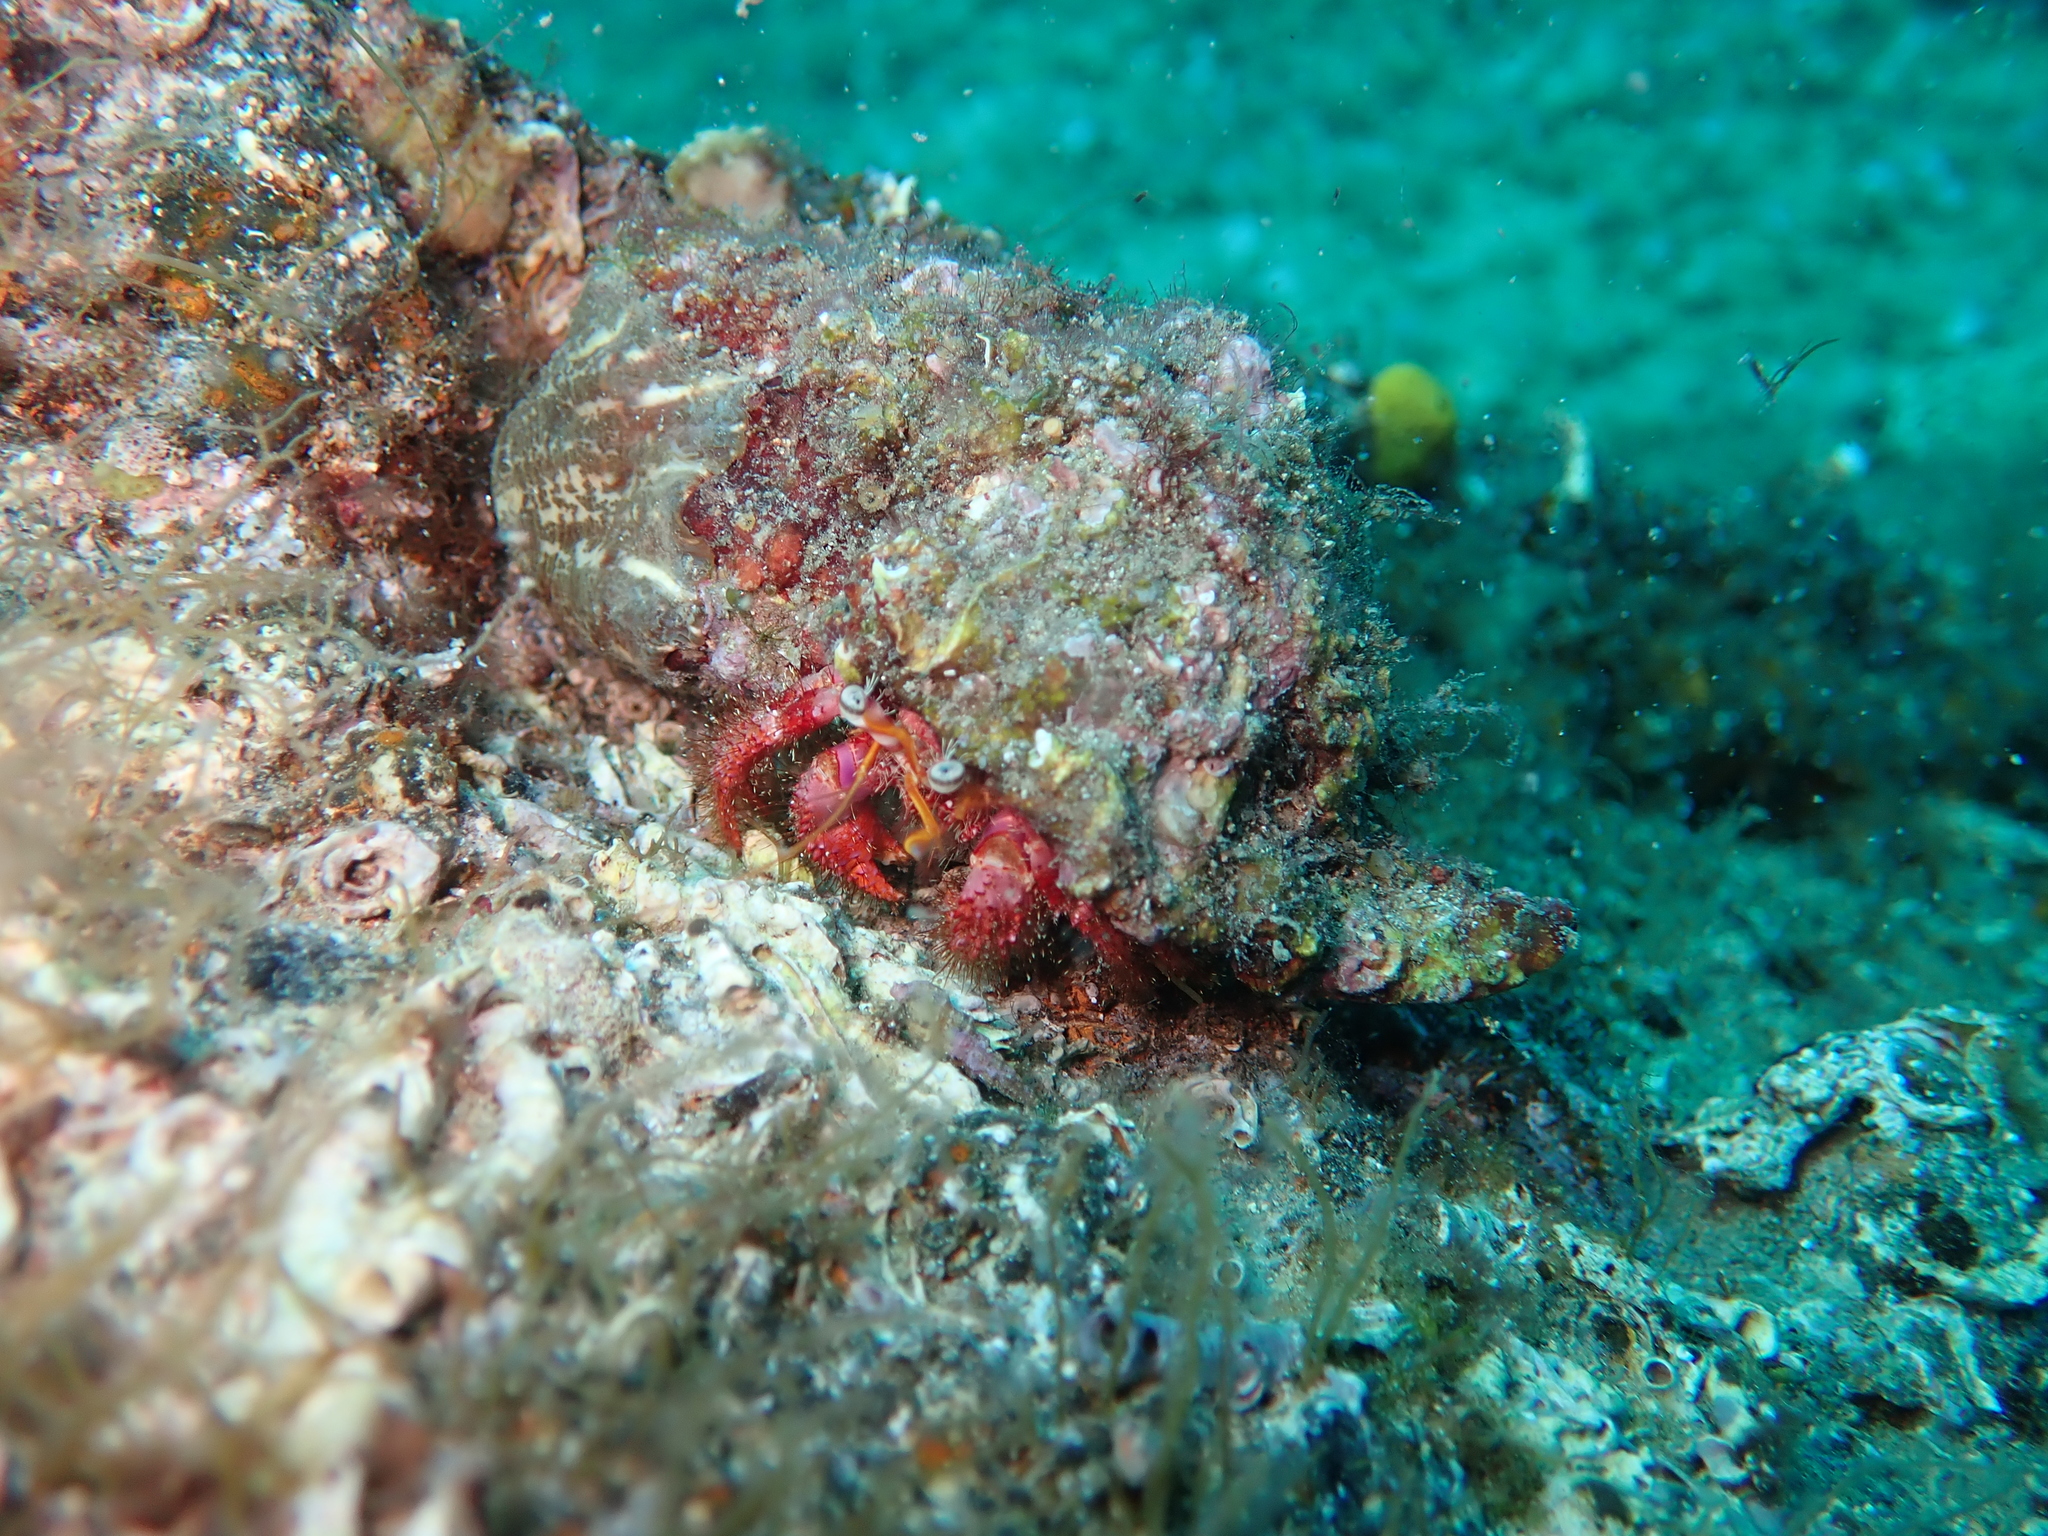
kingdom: Animalia
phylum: Arthropoda
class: Malacostraca
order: Decapoda
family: Diogenidae
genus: Dardanus
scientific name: Dardanus calidus
